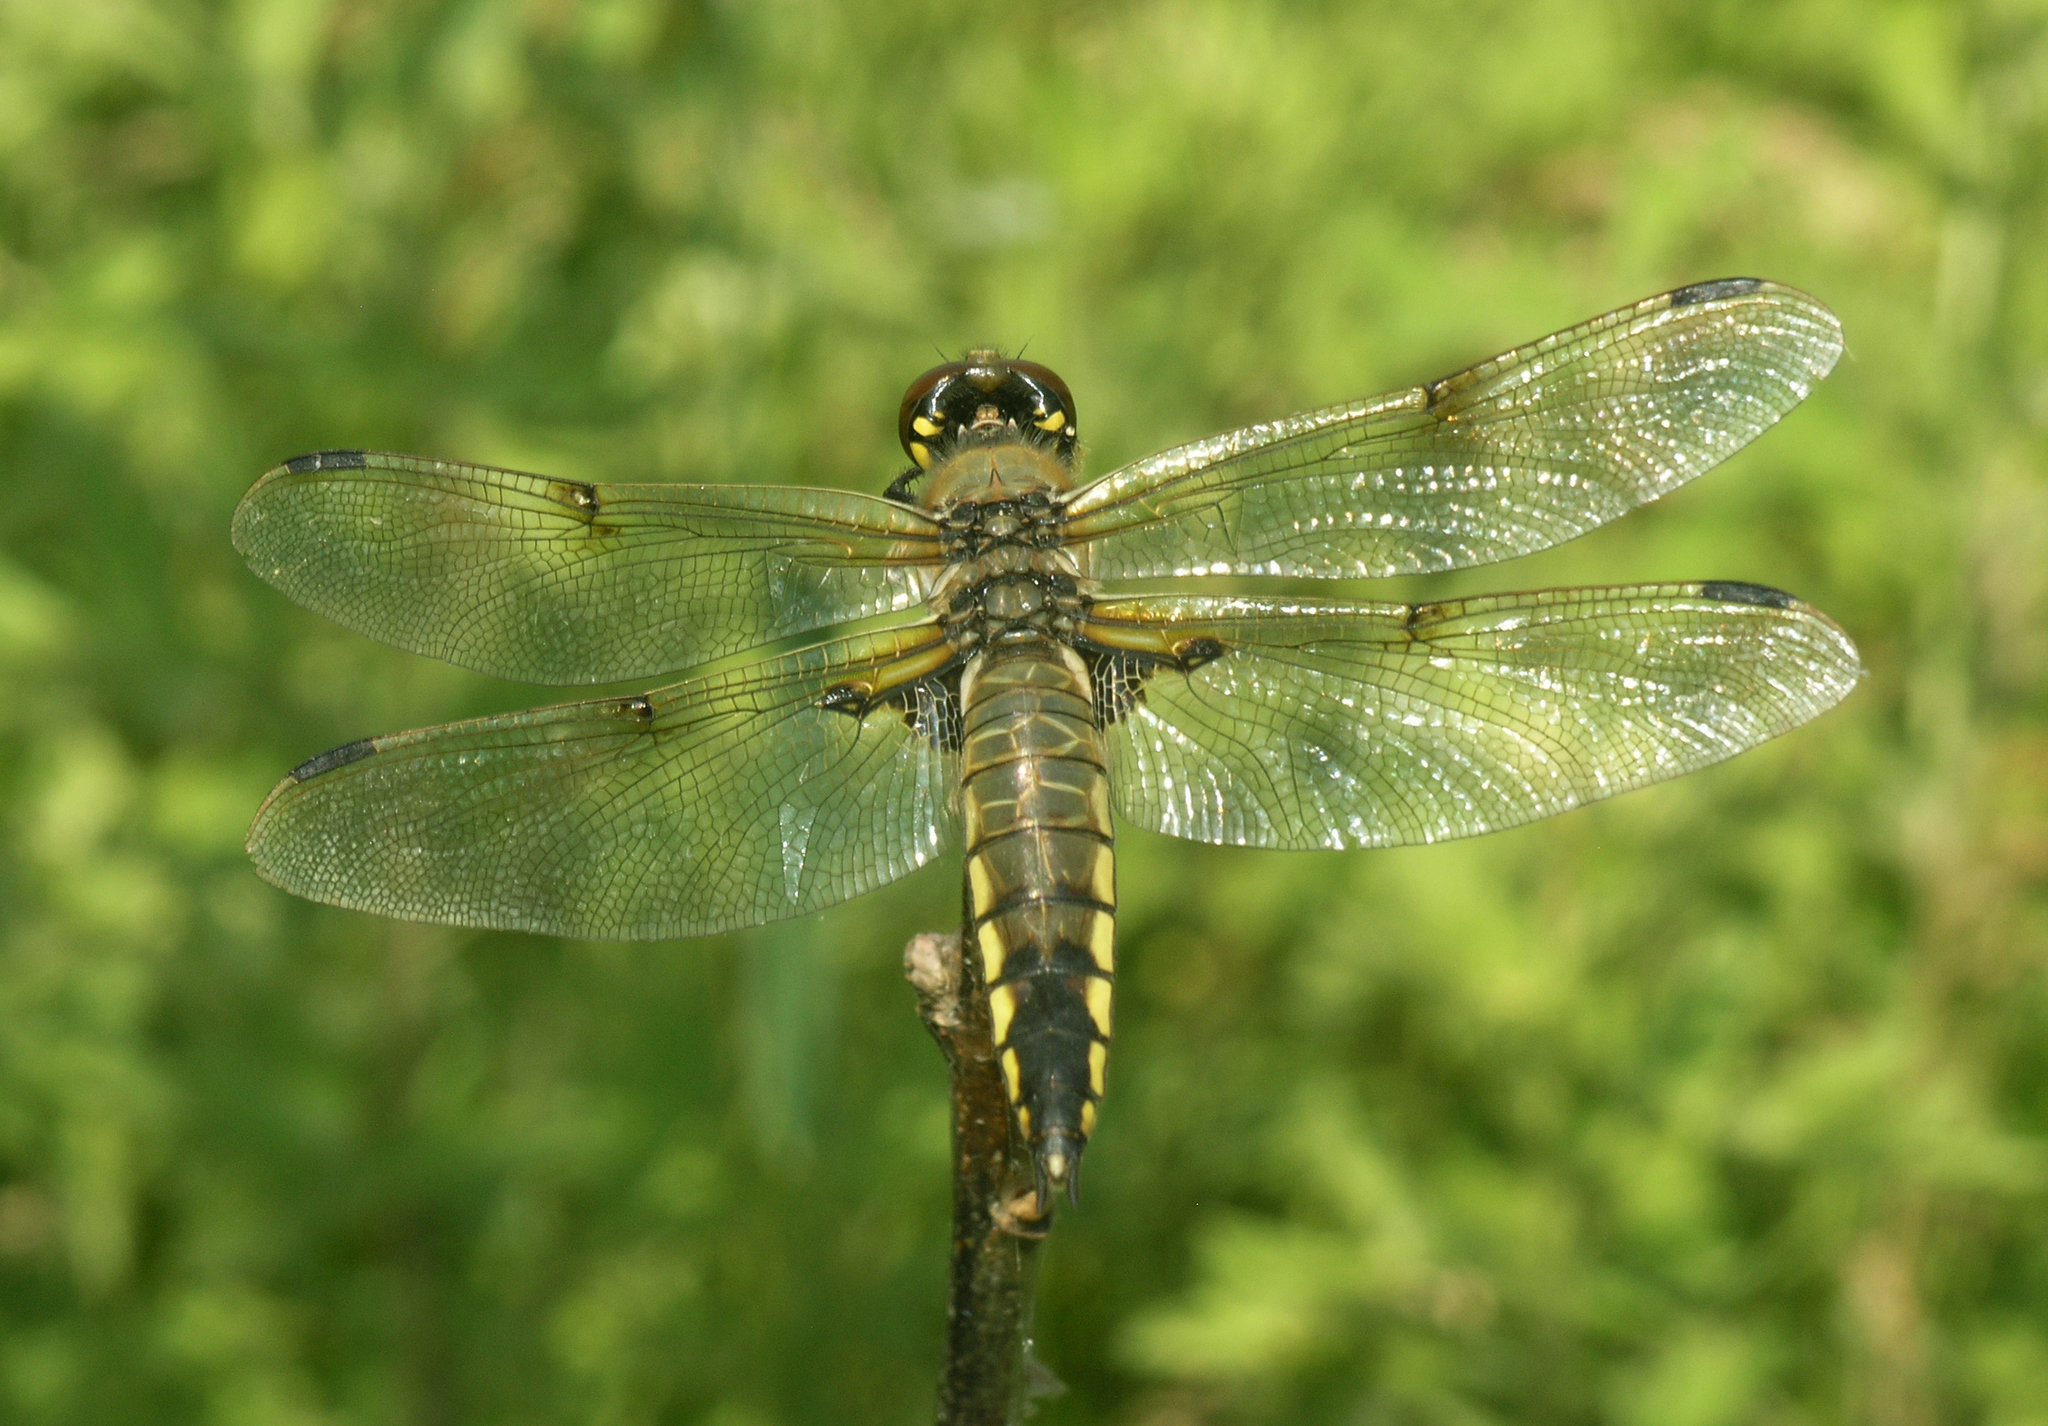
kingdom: Animalia
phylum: Arthropoda
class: Insecta
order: Odonata
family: Libellulidae
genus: Libellula
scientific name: Libellula quadrimaculata
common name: Four-spotted chaser
